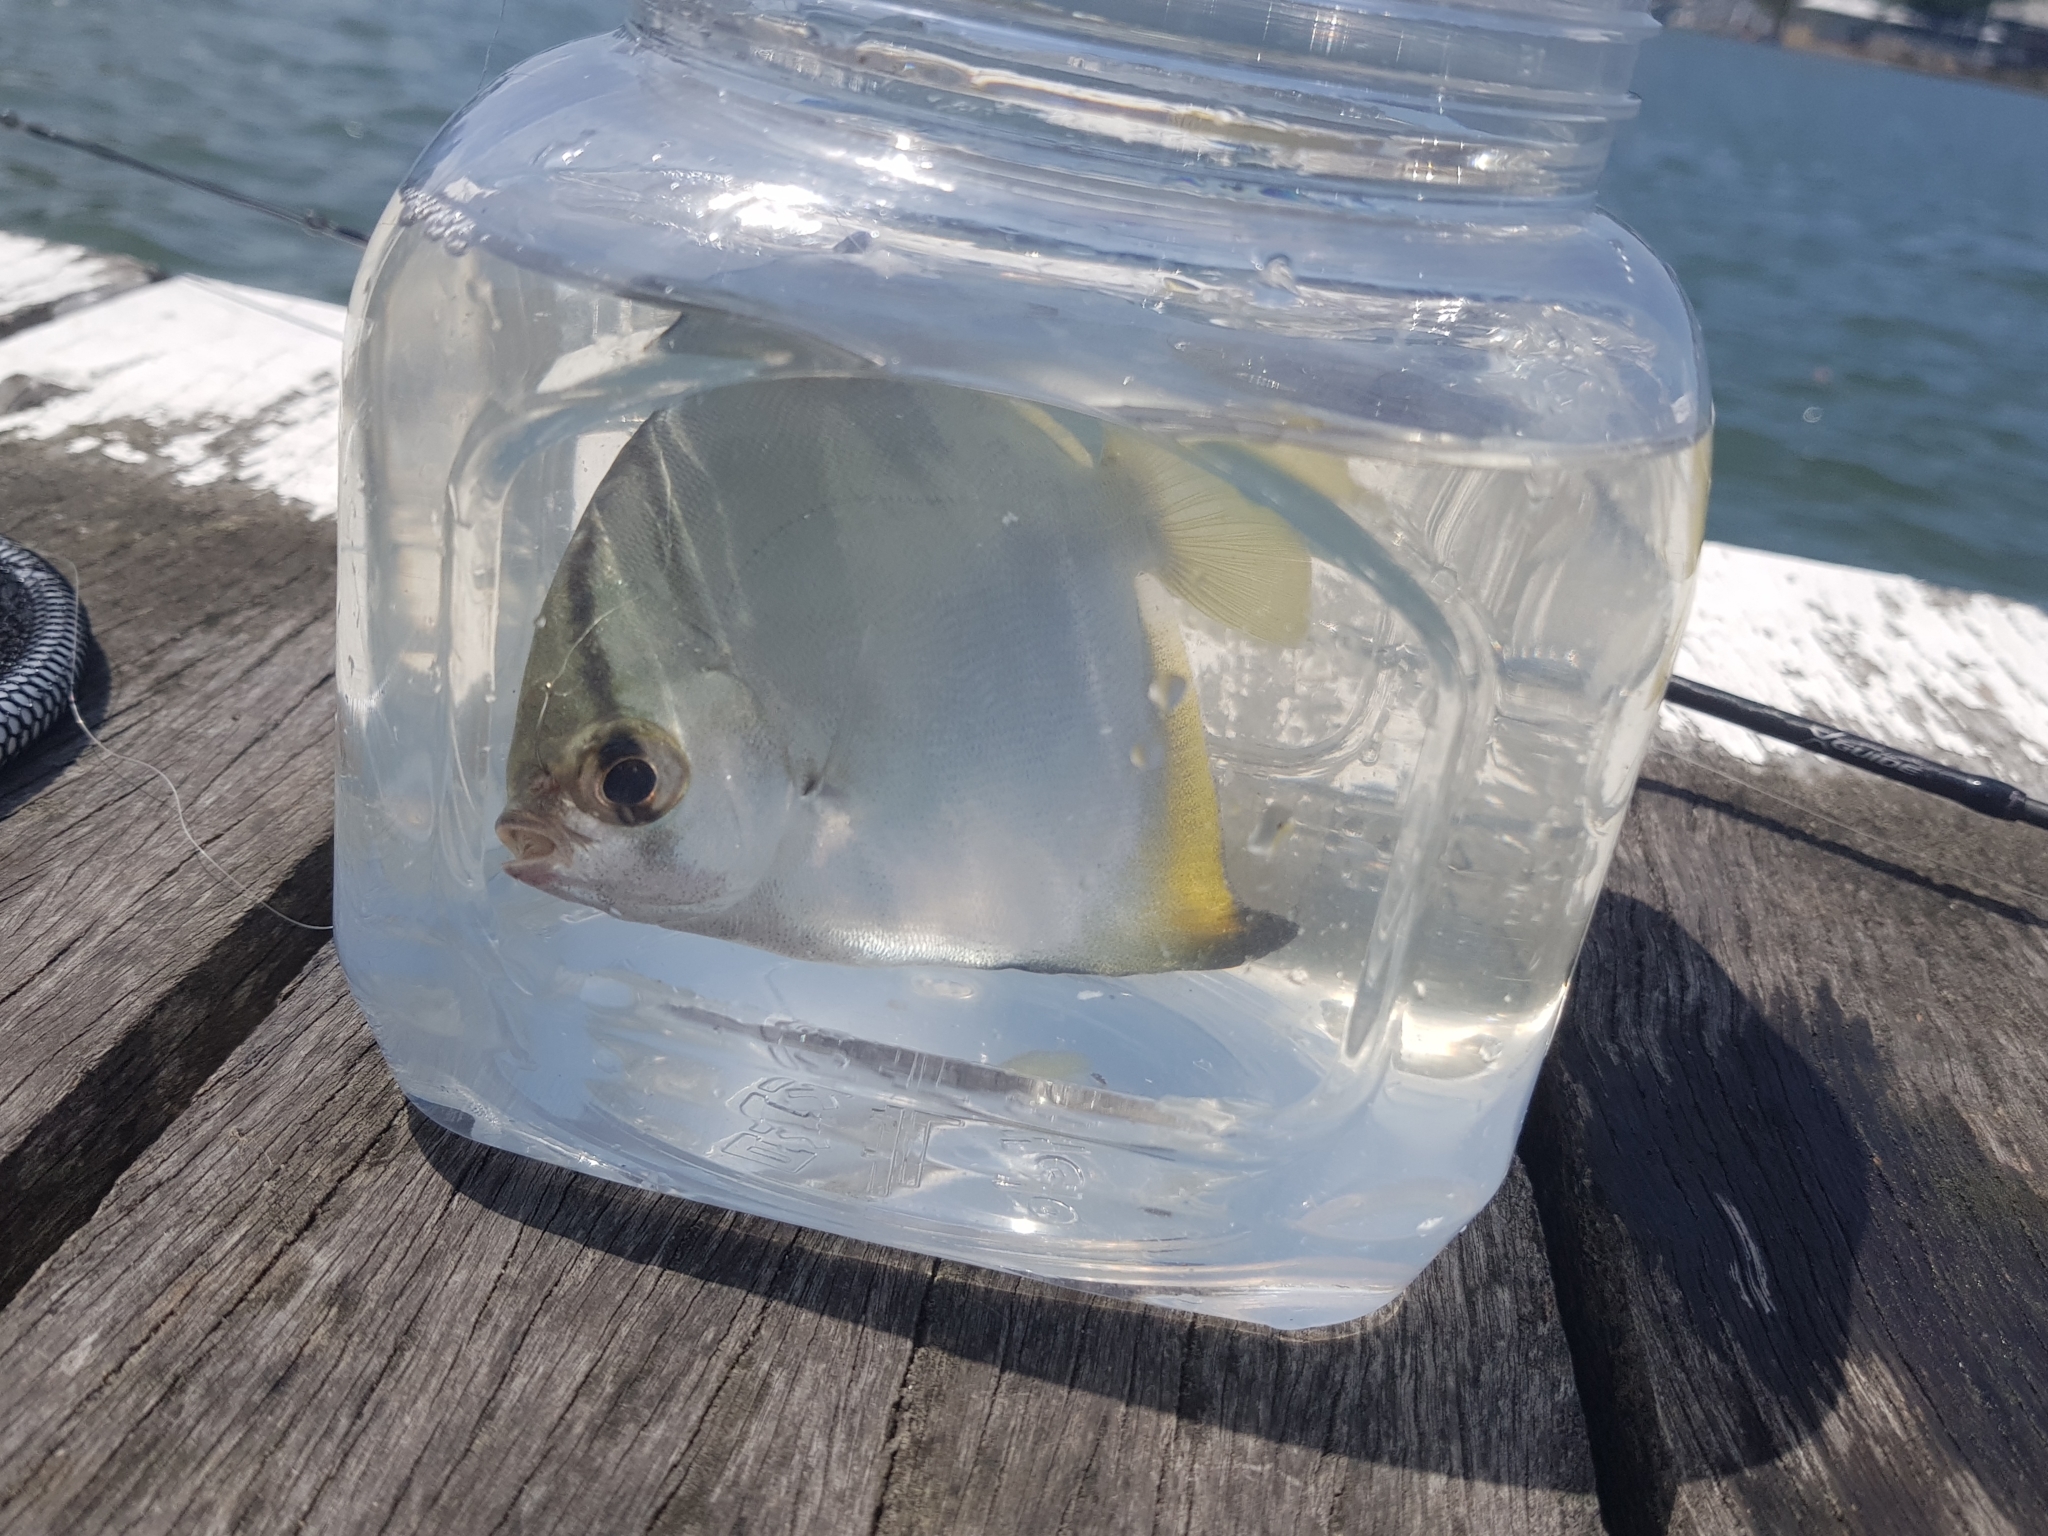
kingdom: Animalia
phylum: Chordata
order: Perciformes
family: Monodactylidae
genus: Monodactylus
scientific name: Monodactylus argenteus
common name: Silver moony
